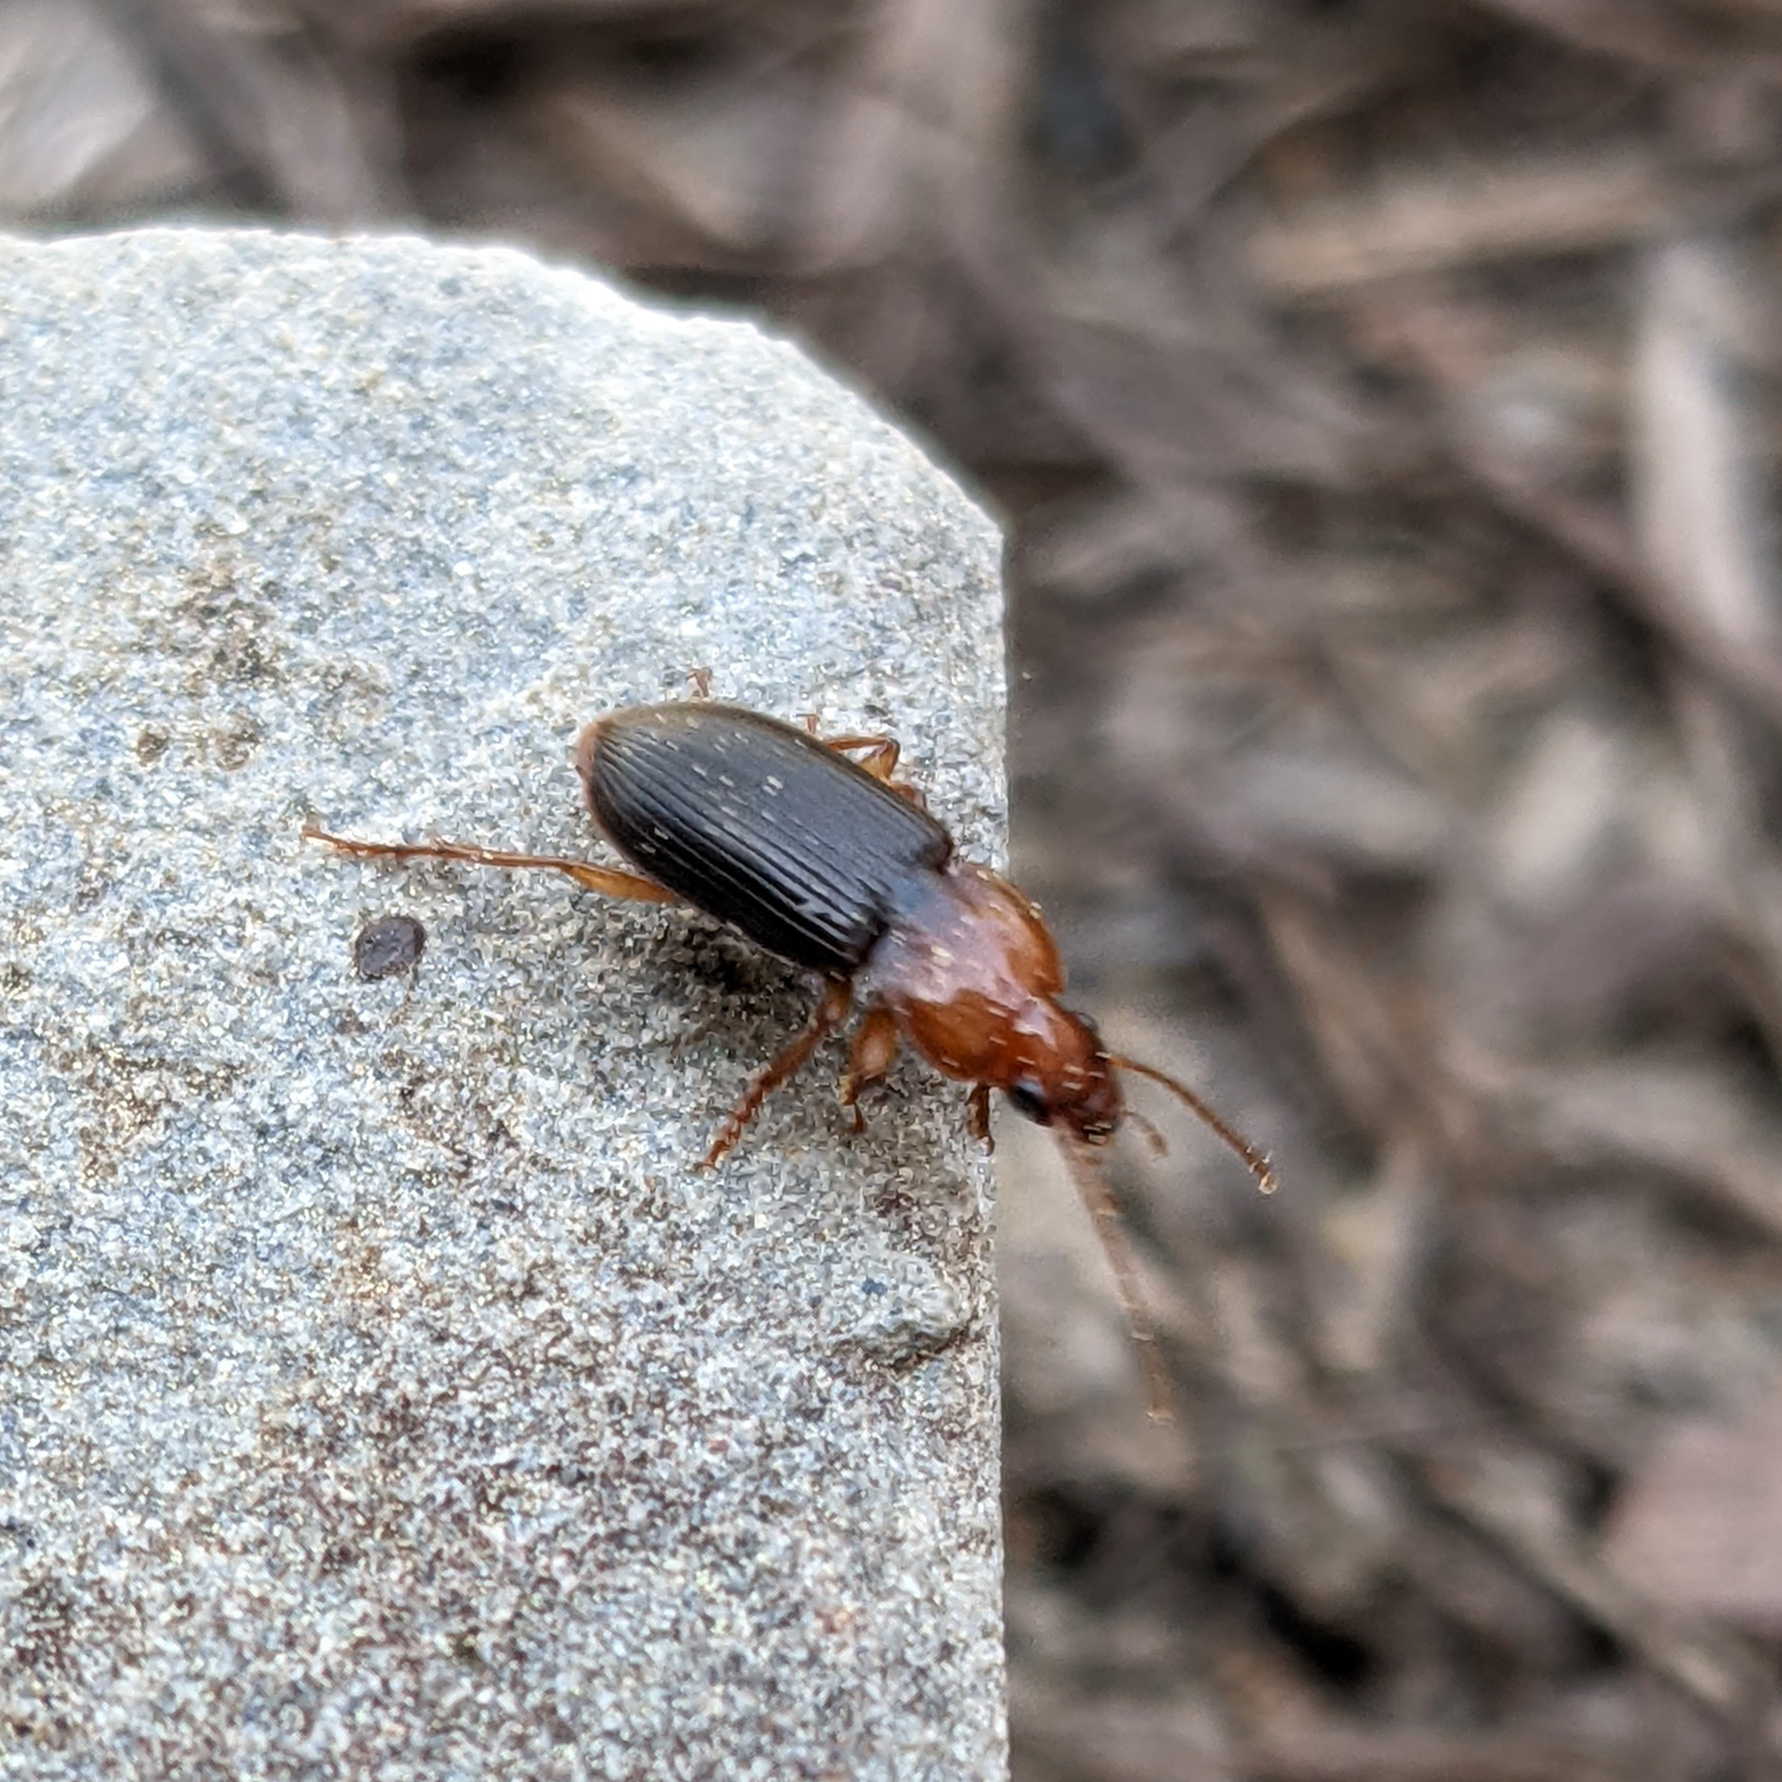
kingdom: Animalia
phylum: Arthropoda
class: Insecta
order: Coleoptera
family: Carabidae
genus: Amphasia
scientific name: Amphasia interstitialis
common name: Red-headed ground beetle
